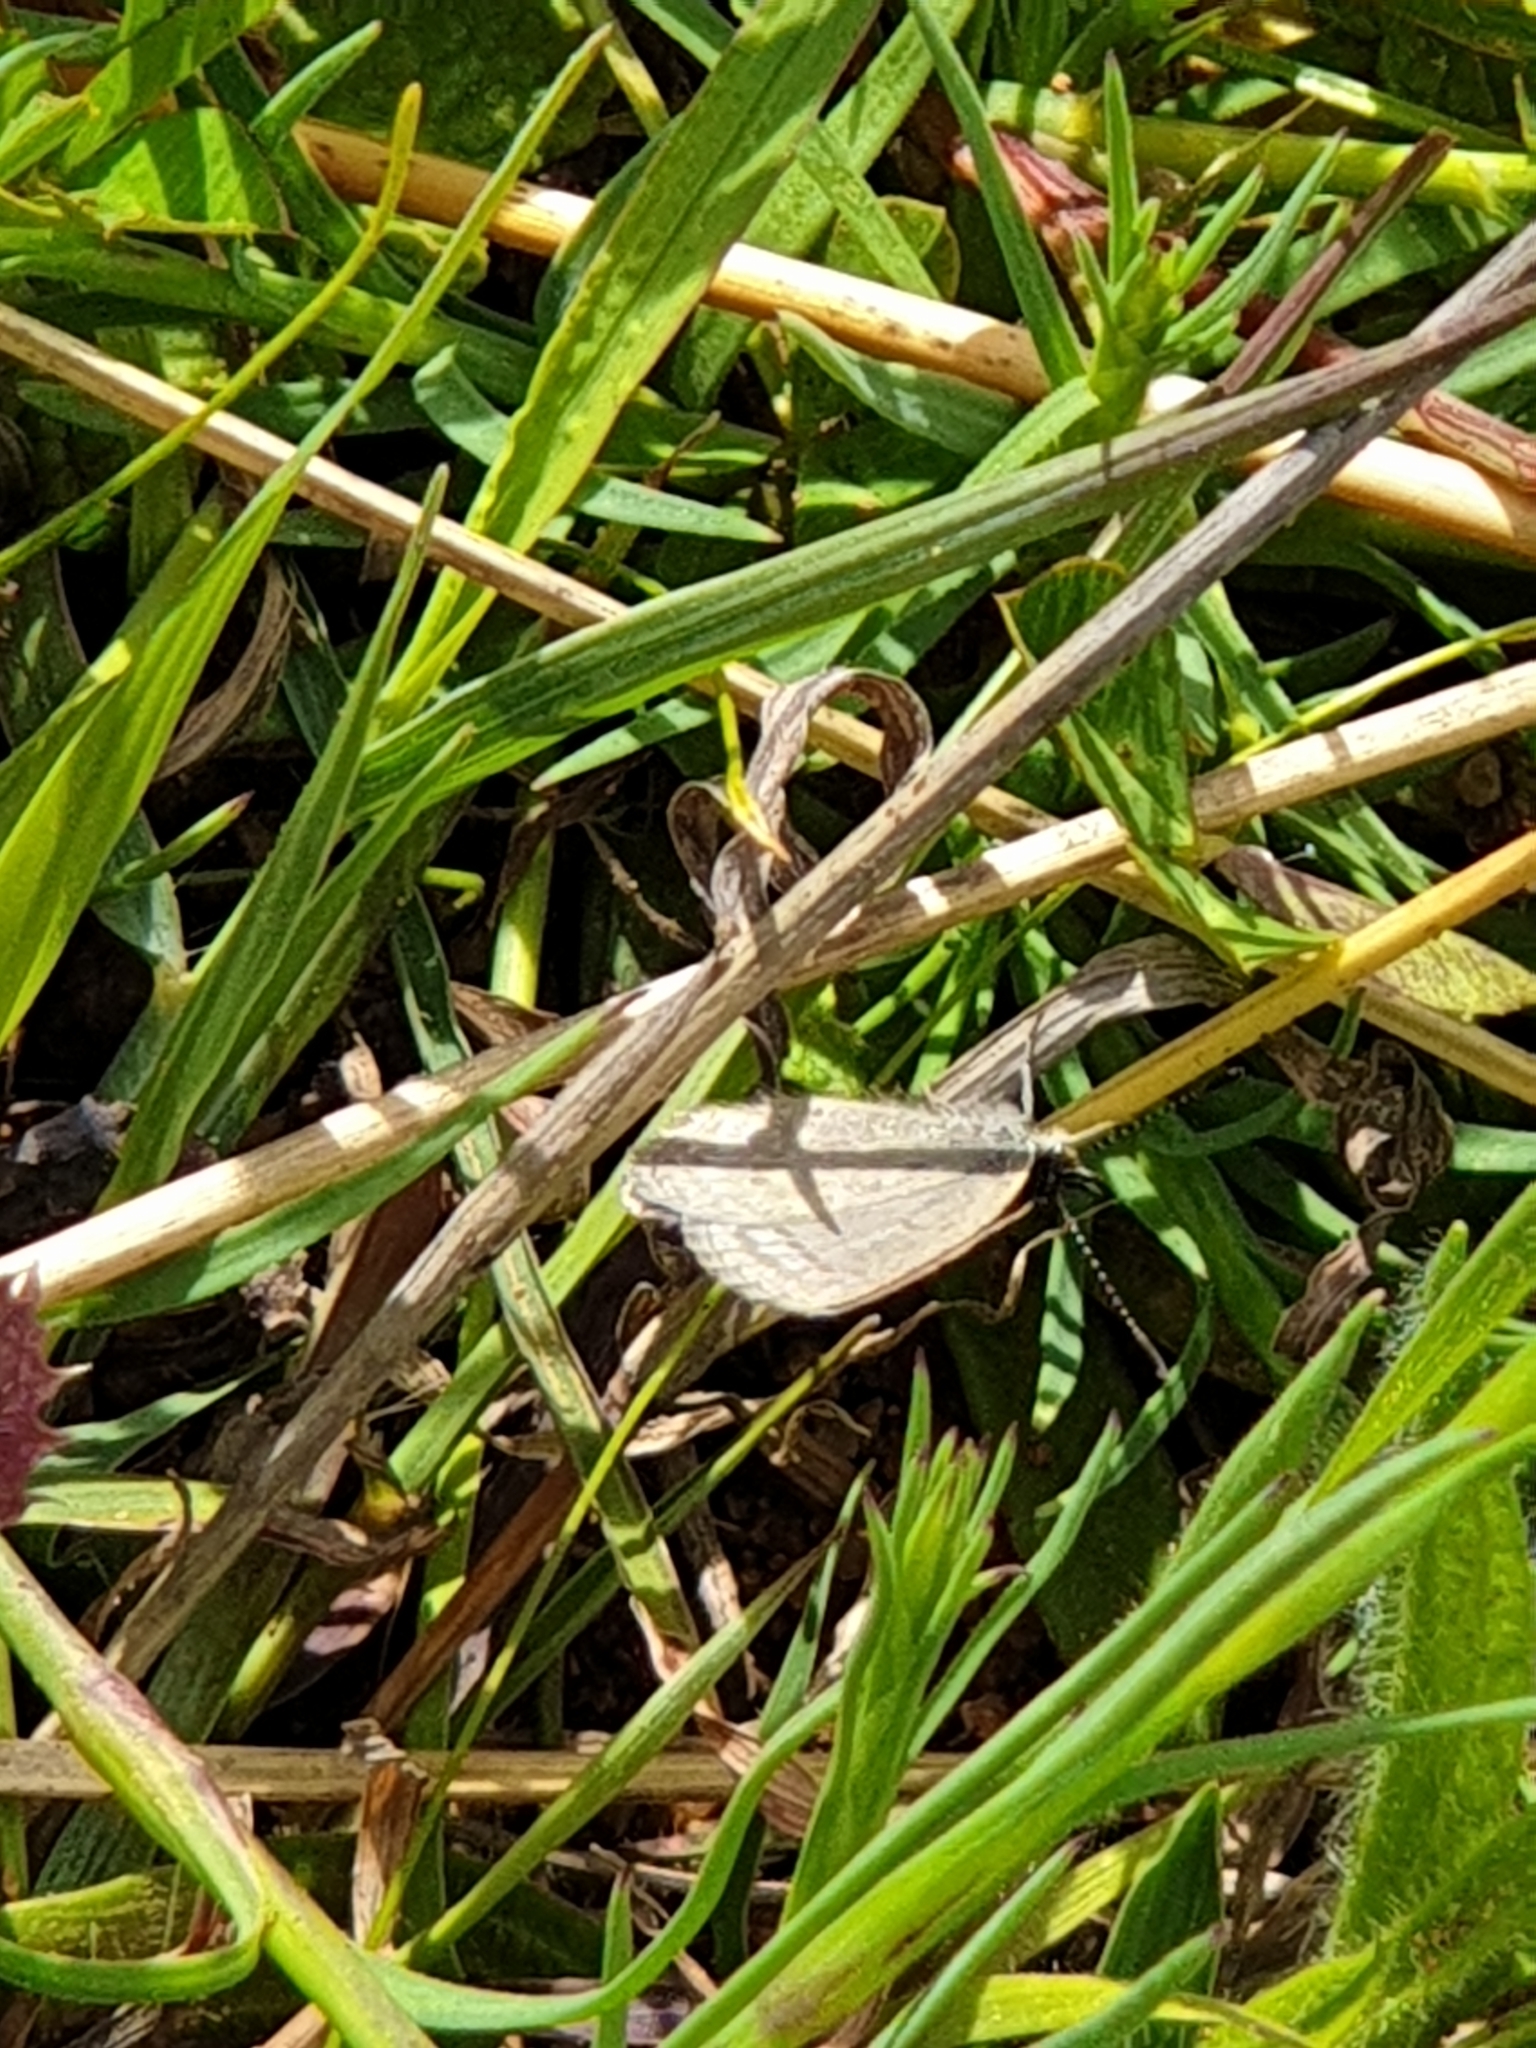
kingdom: Animalia
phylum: Arthropoda
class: Insecta
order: Lepidoptera
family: Lycaenidae
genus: Zizina
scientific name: Zizina labradus
